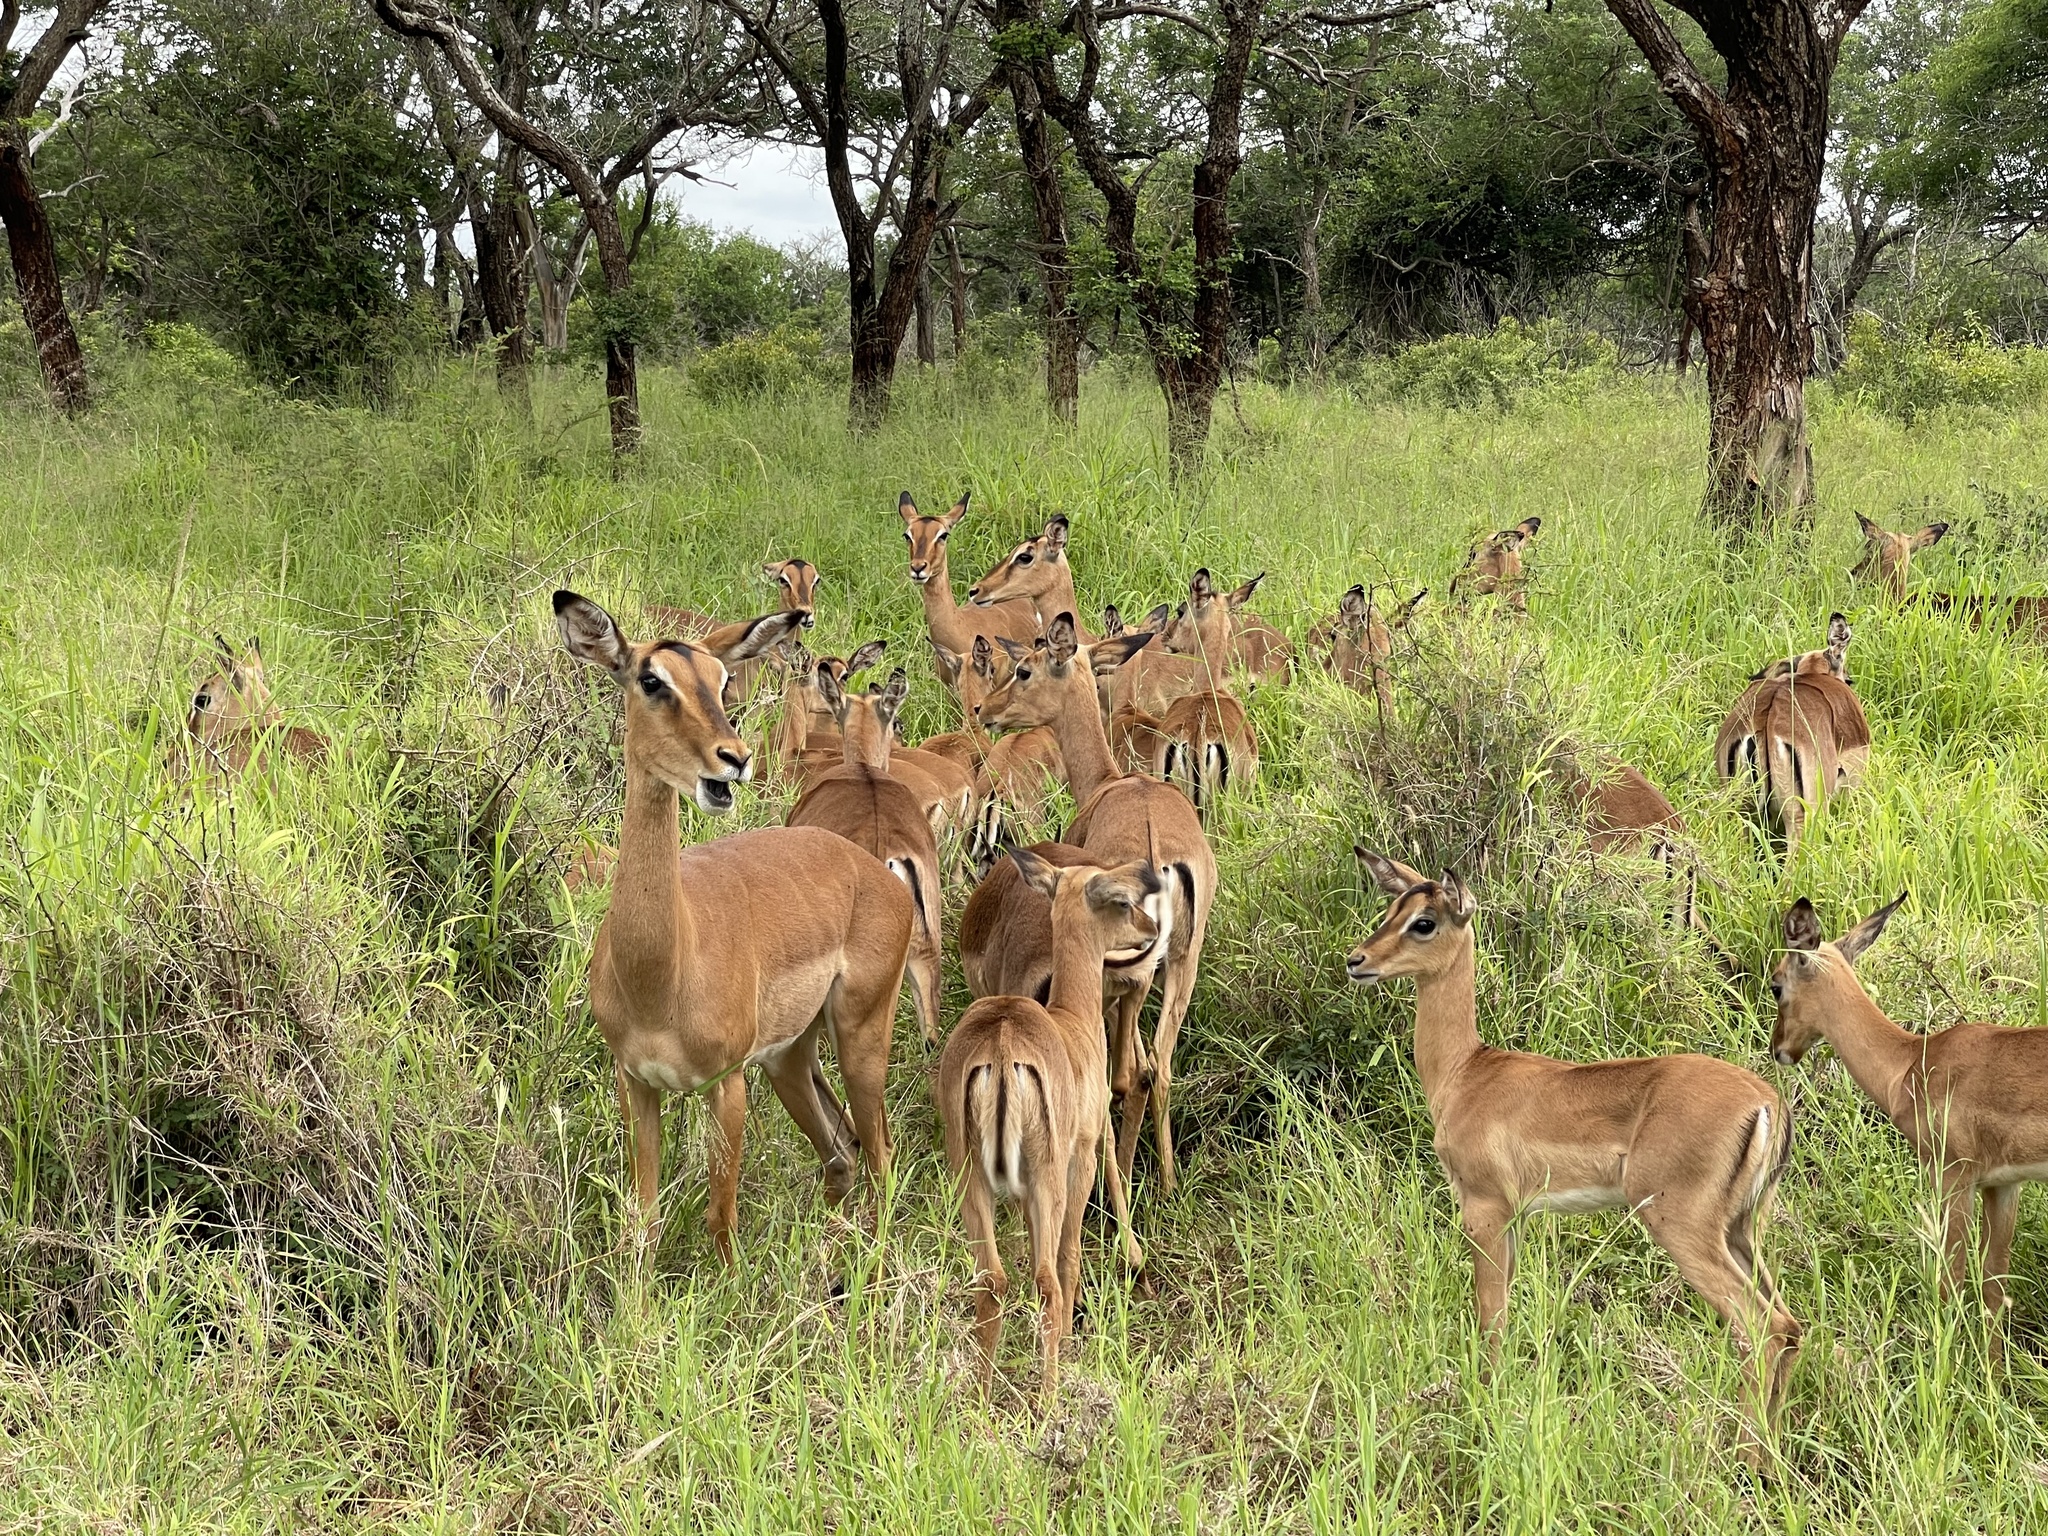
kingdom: Animalia
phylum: Chordata
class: Mammalia
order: Artiodactyla
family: Bovidae
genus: Aepyceros
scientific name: Aepyceros melampus
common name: Impala
